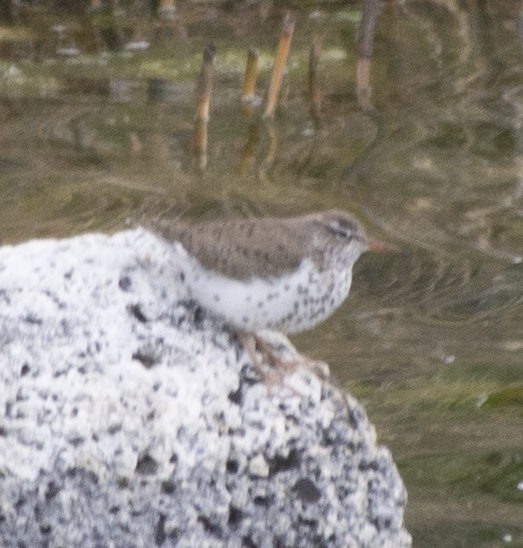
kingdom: Animalia
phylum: Chordata
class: Aves
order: Charadriiformes
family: Scolopacidae
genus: Actitis
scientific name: Actitis macularius
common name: Spotted sandpiper
